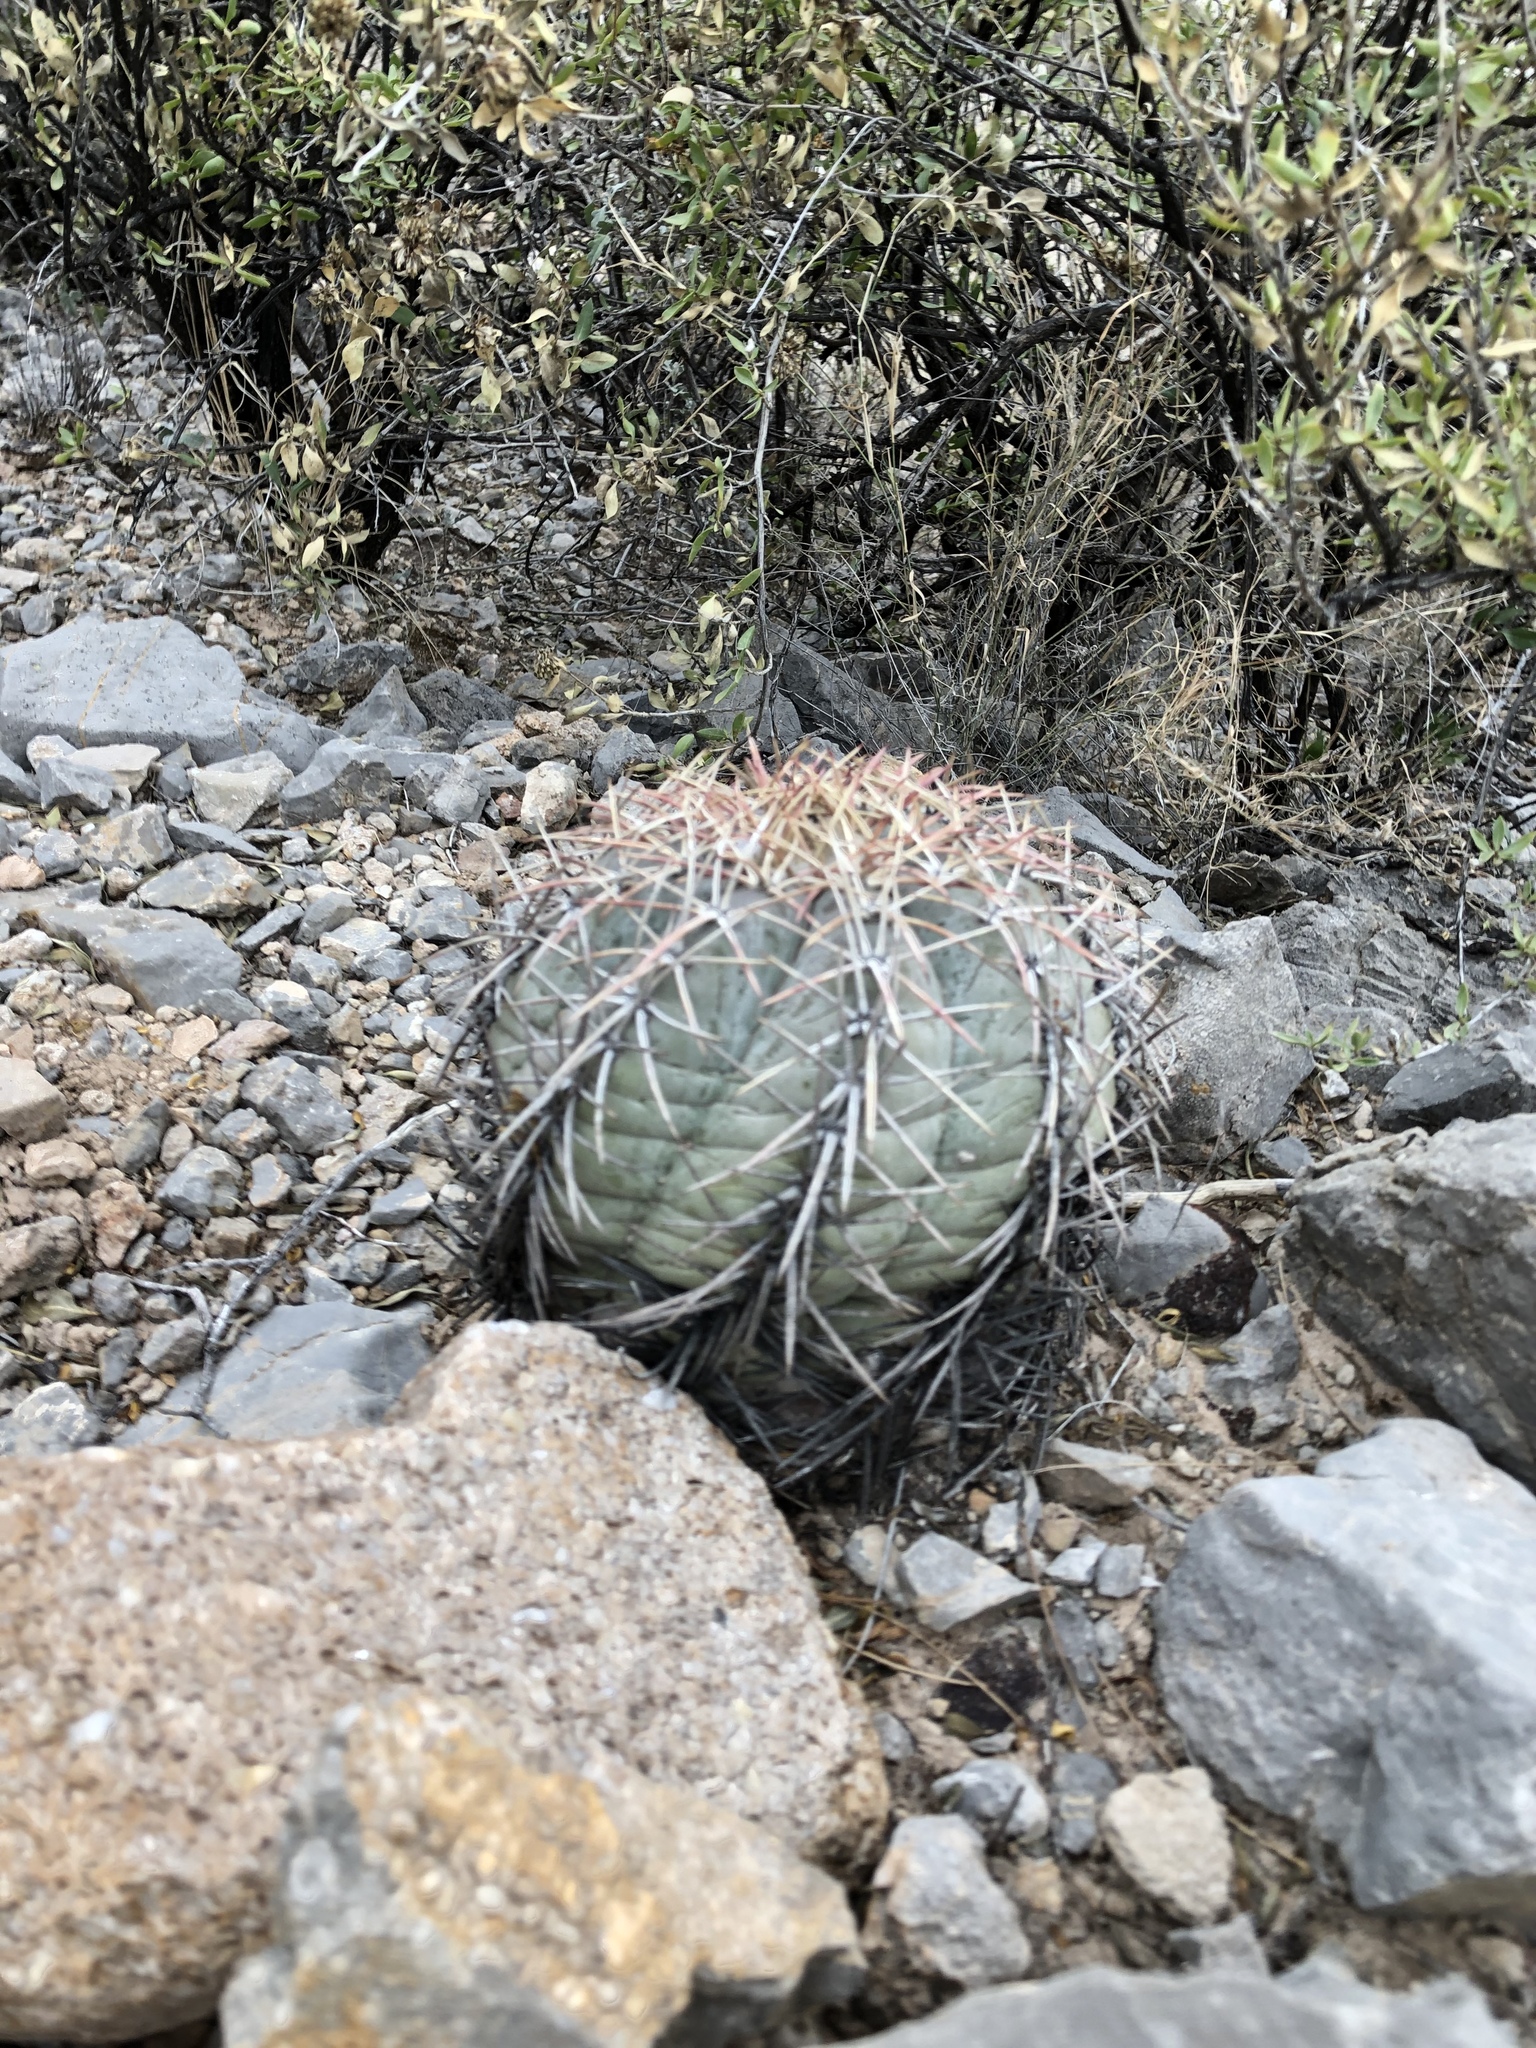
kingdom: Plantae
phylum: Tracheophyta
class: Magnoliopsida
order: Caryophyllales
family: Cactaceae
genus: Echinocactus
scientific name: Echinocactus horizonthalonius
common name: Devilshead
